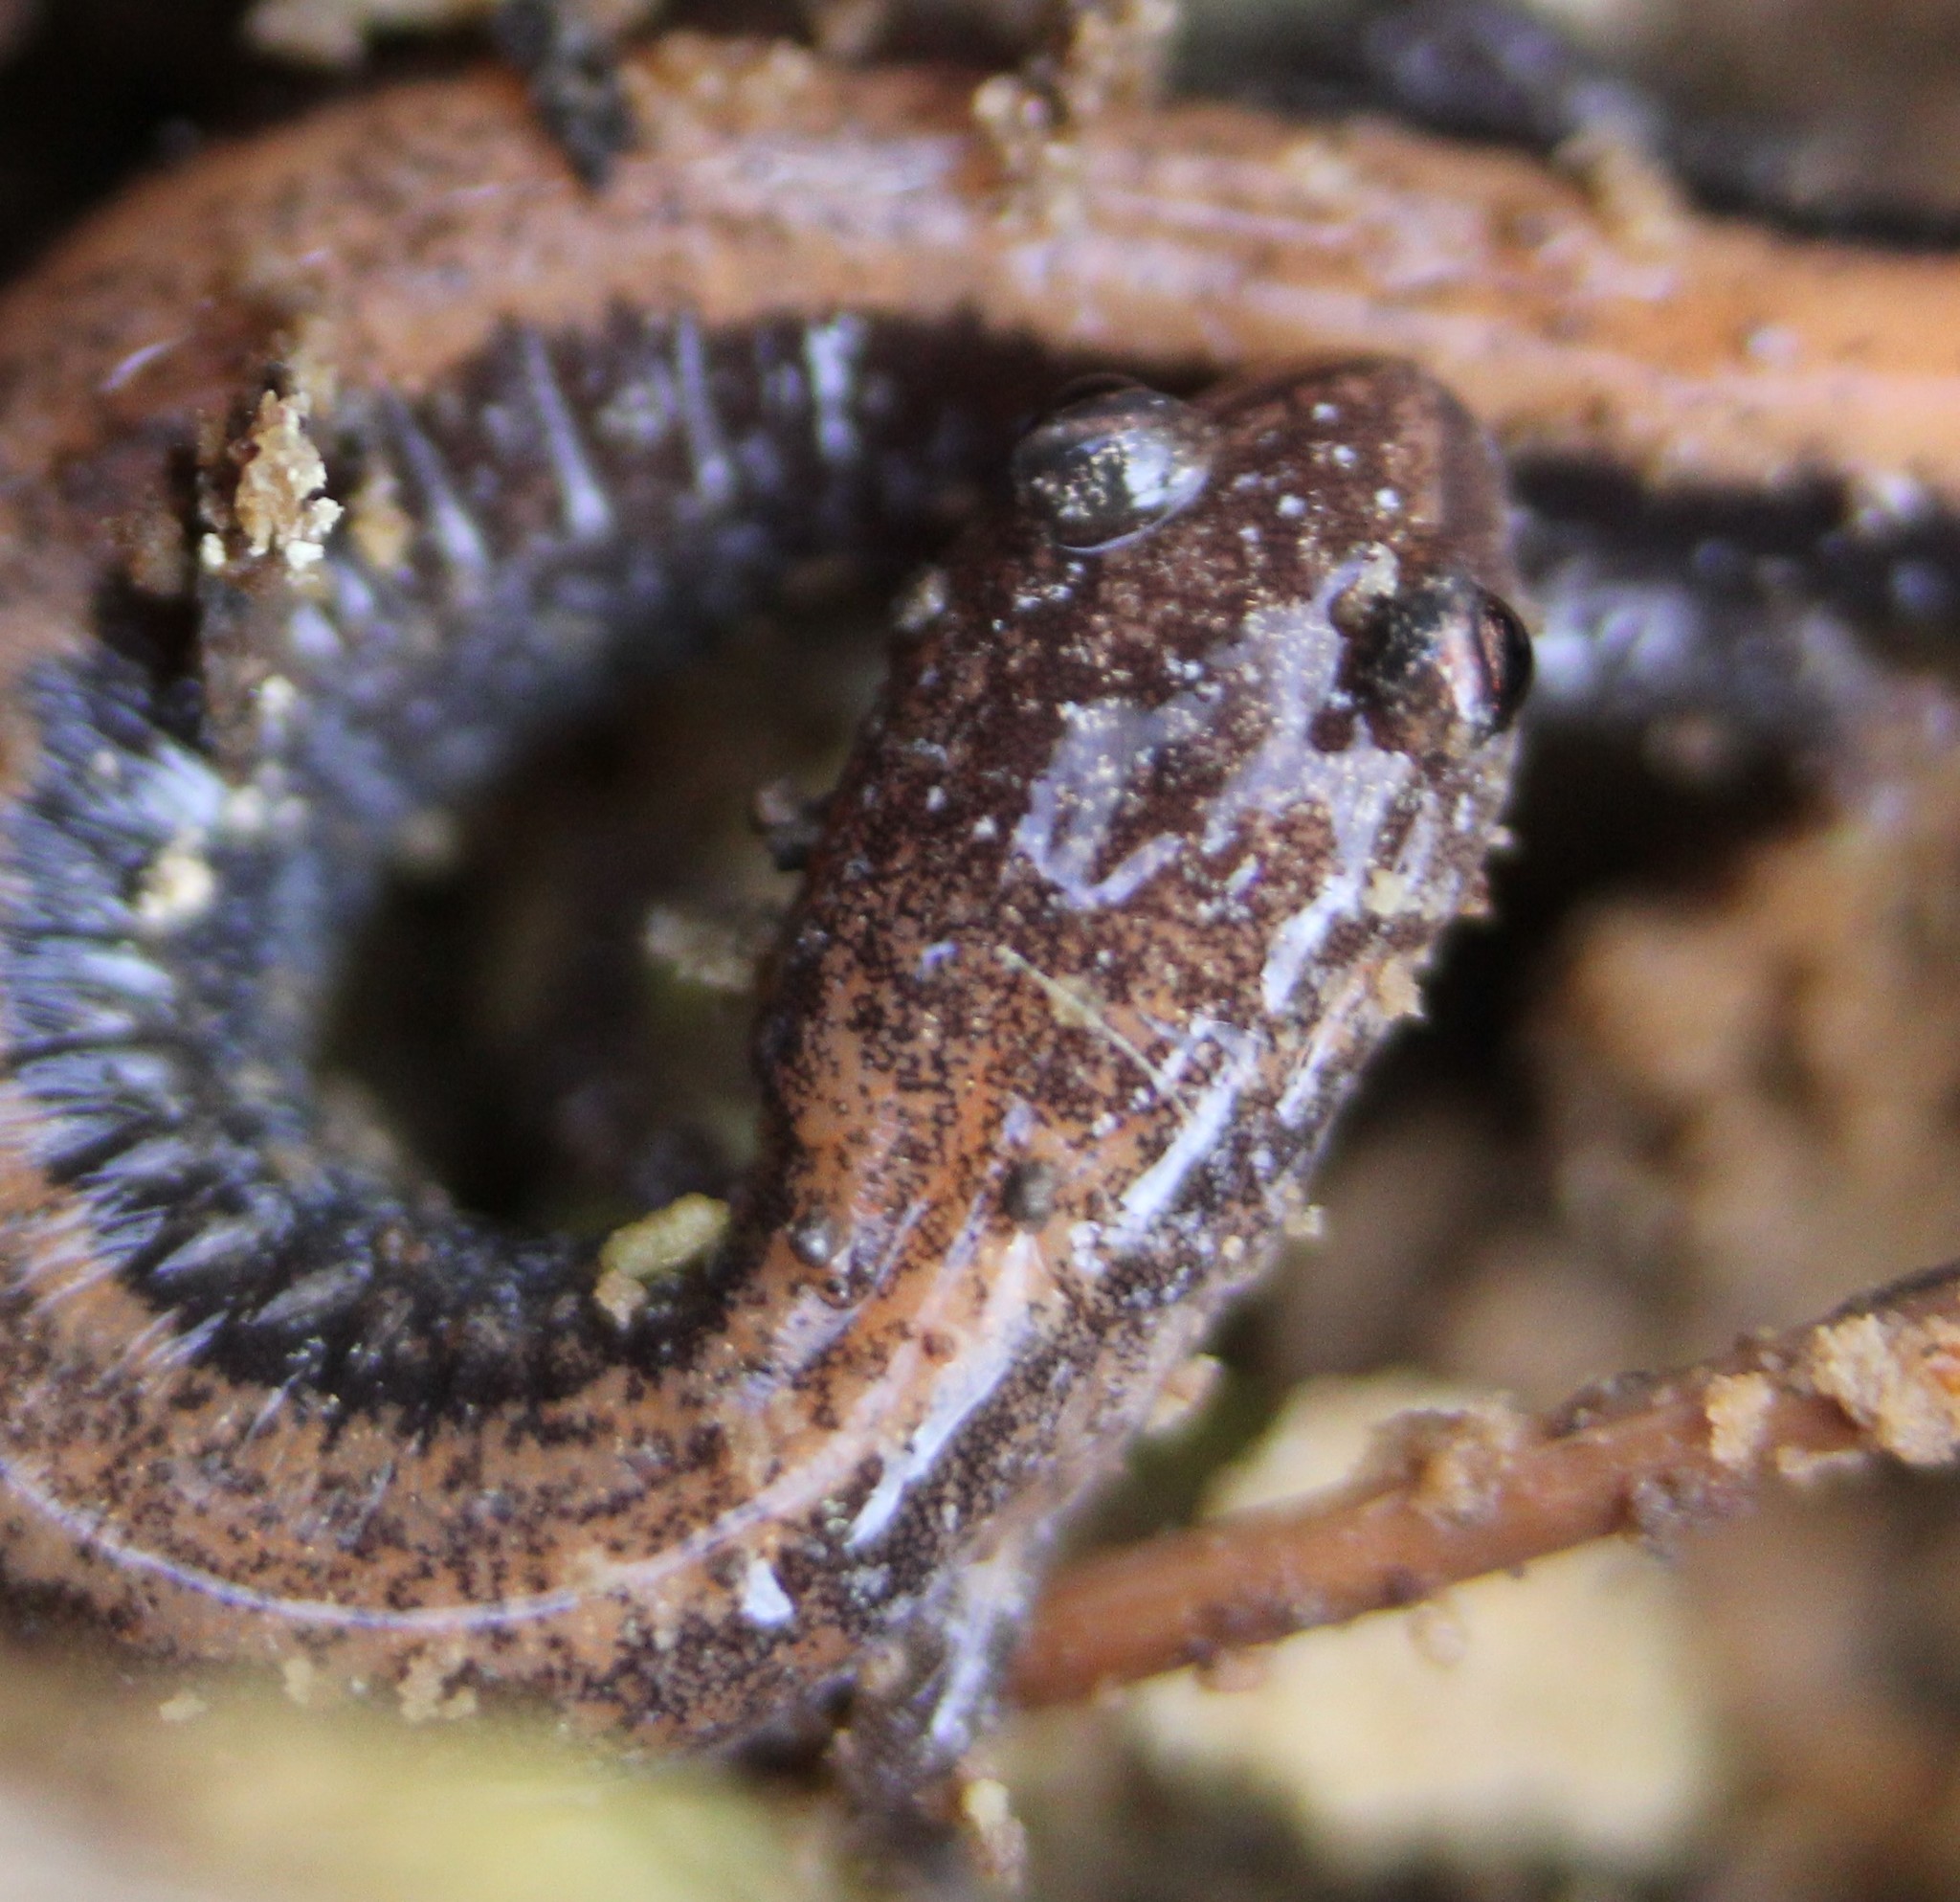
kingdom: Animalia
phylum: Chordata
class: Amphibia
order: Caudata
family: Plethodontidae
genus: Plethodon
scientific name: Plethodon cinereus
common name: Redback salamander
